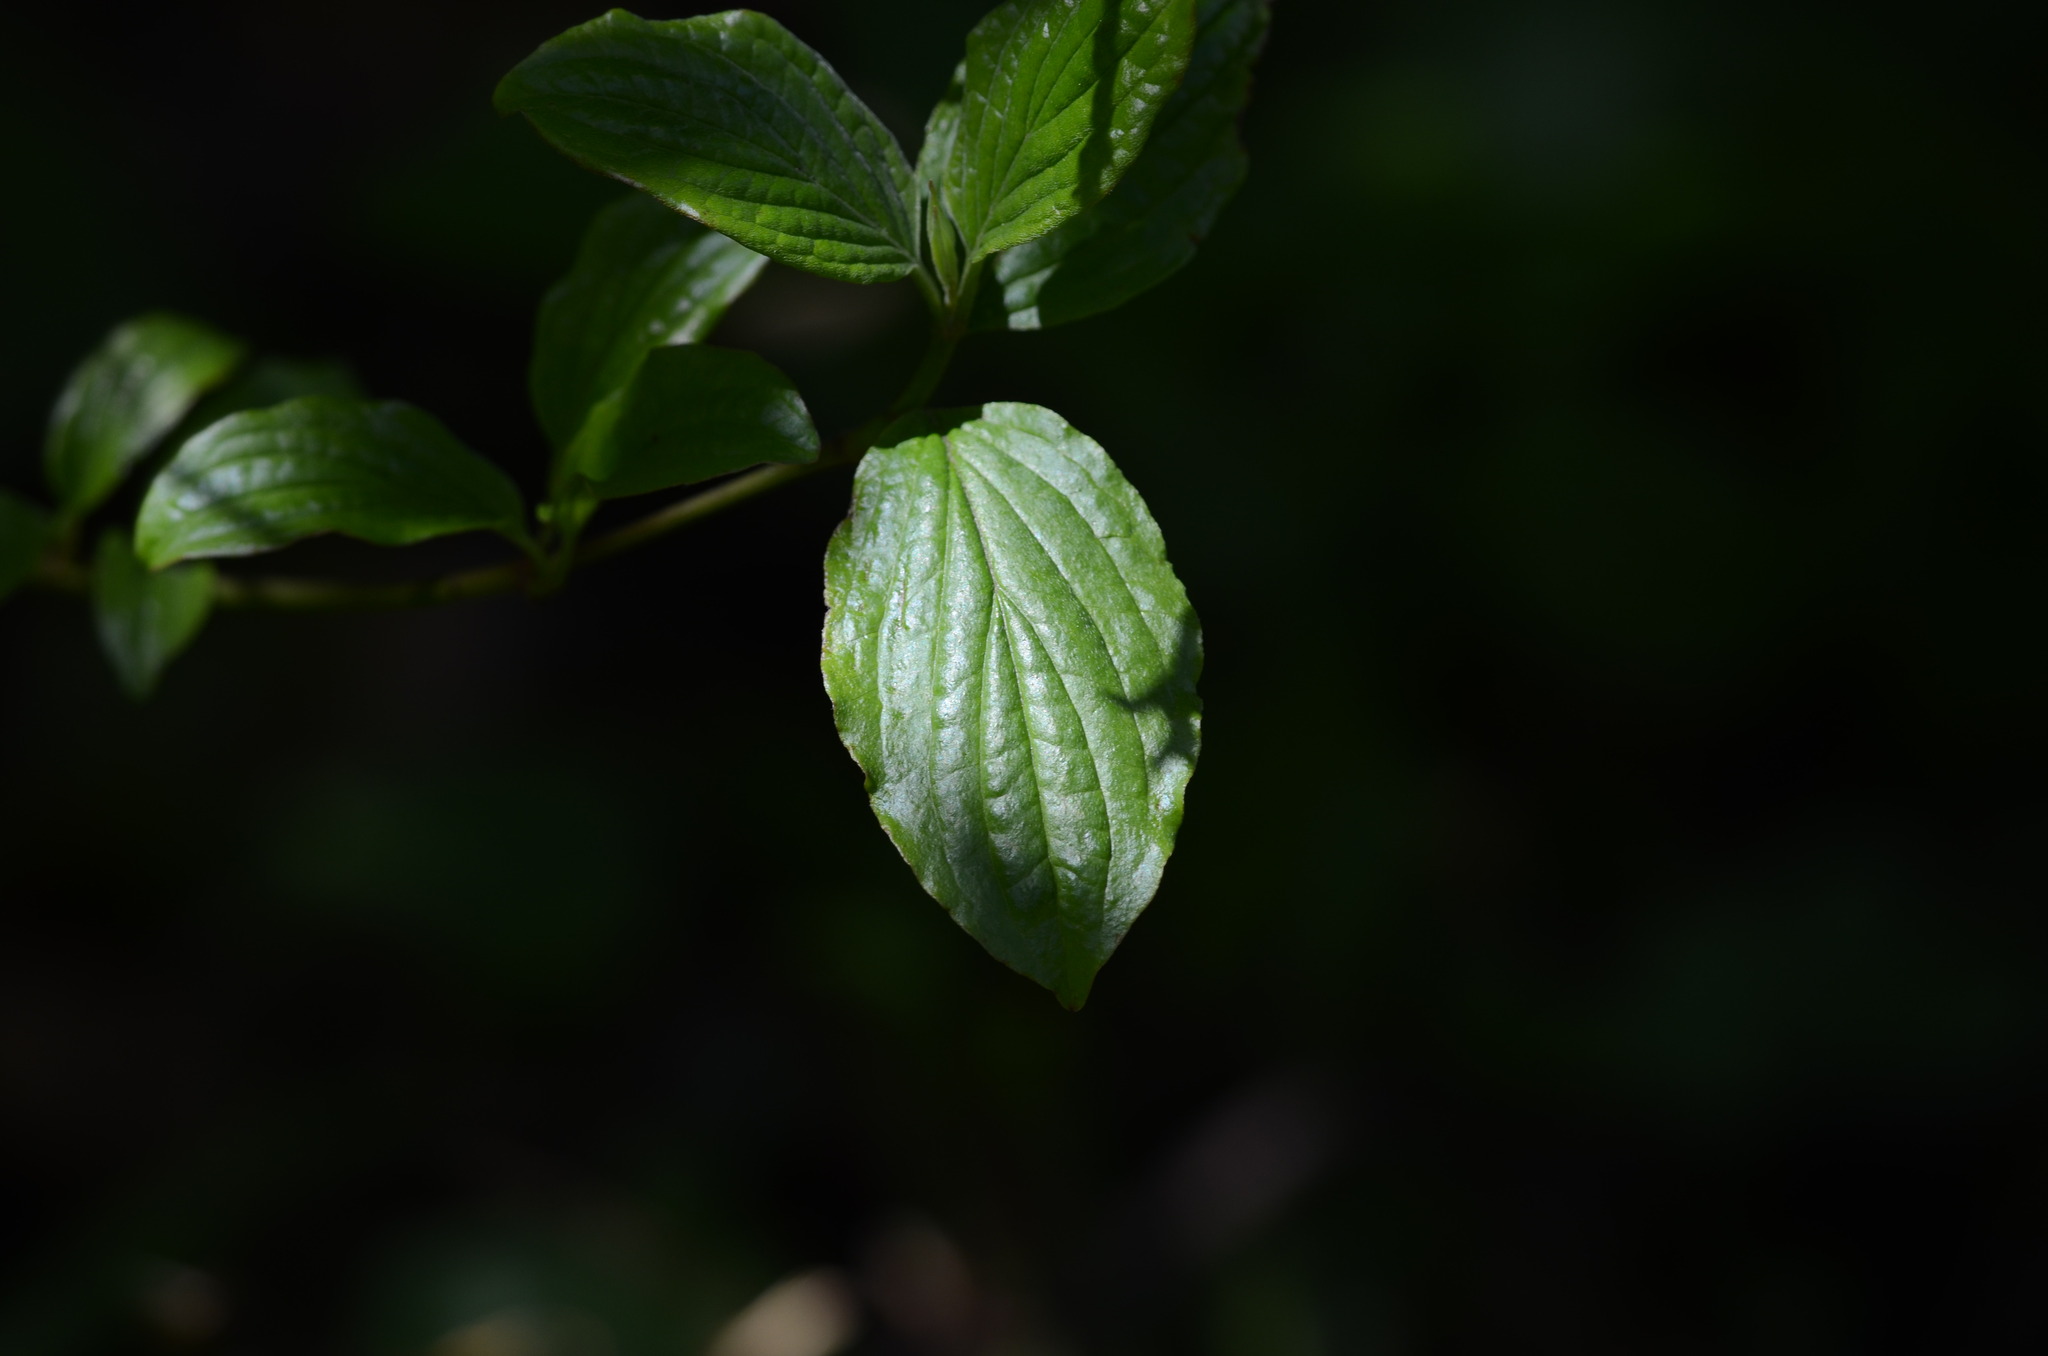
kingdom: Plantae
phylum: Tracheophyta
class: Magnoliopsida
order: Cornales
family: Cornaceae
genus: Cornus
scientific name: Cornus sanguinea
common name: Dogwood
